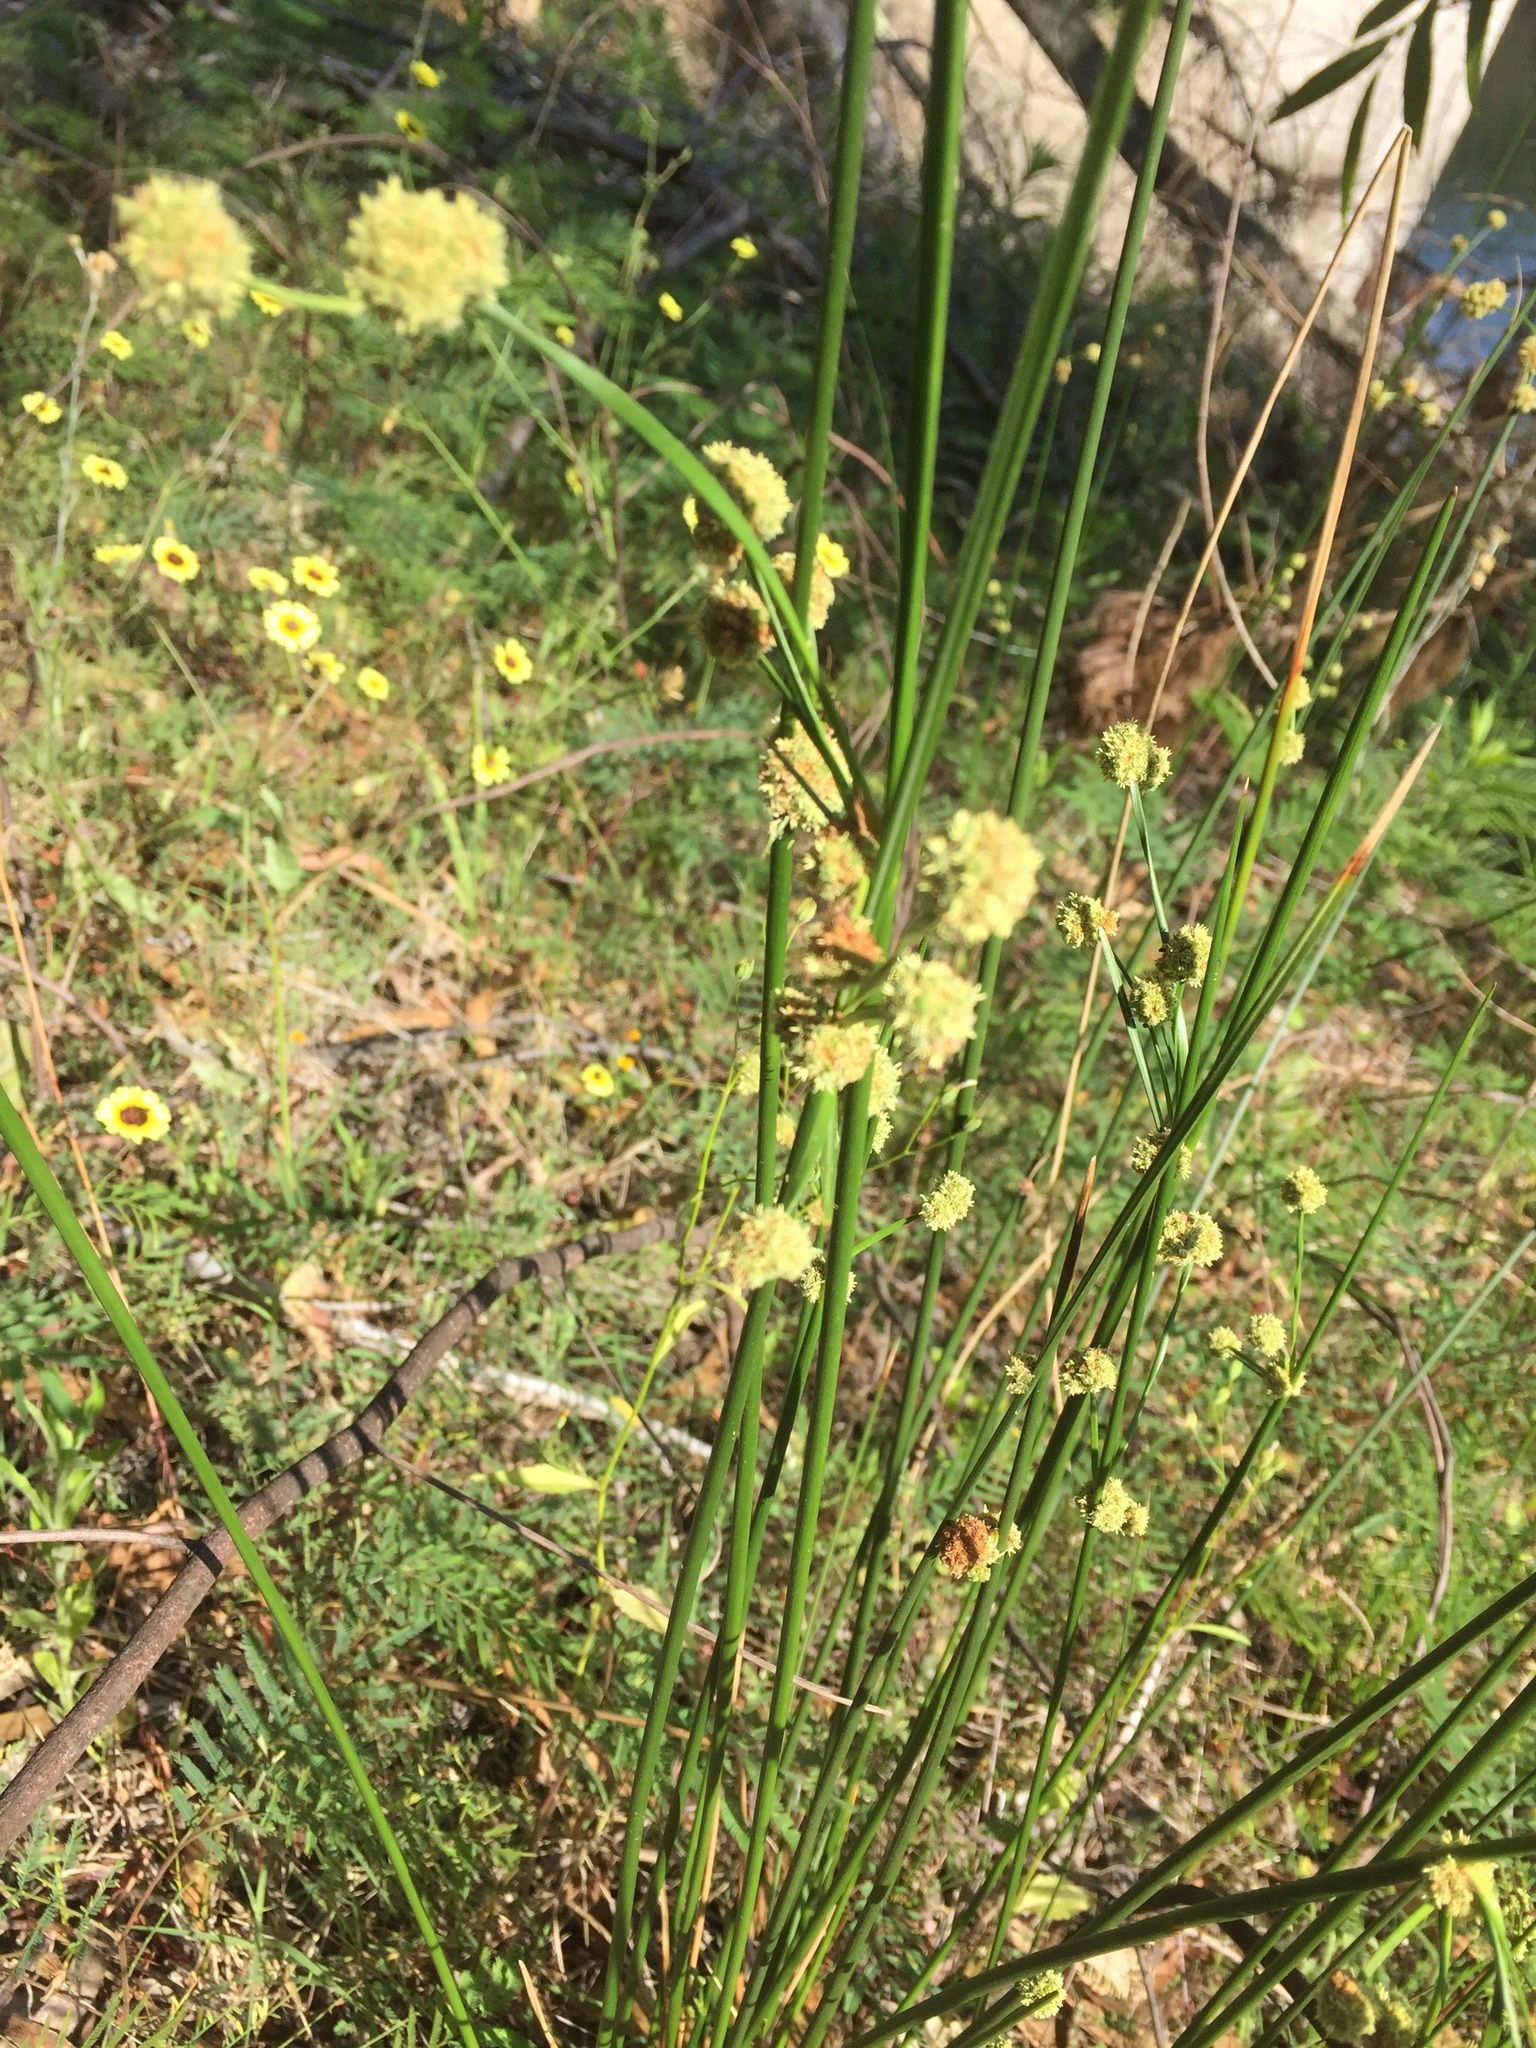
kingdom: Plantae
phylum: Tracheophyta
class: Liliopsida
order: Poales
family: Cyperaceae
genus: Scirpoides
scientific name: Scirpoides holoschoenus
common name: Round-headed club-rush
